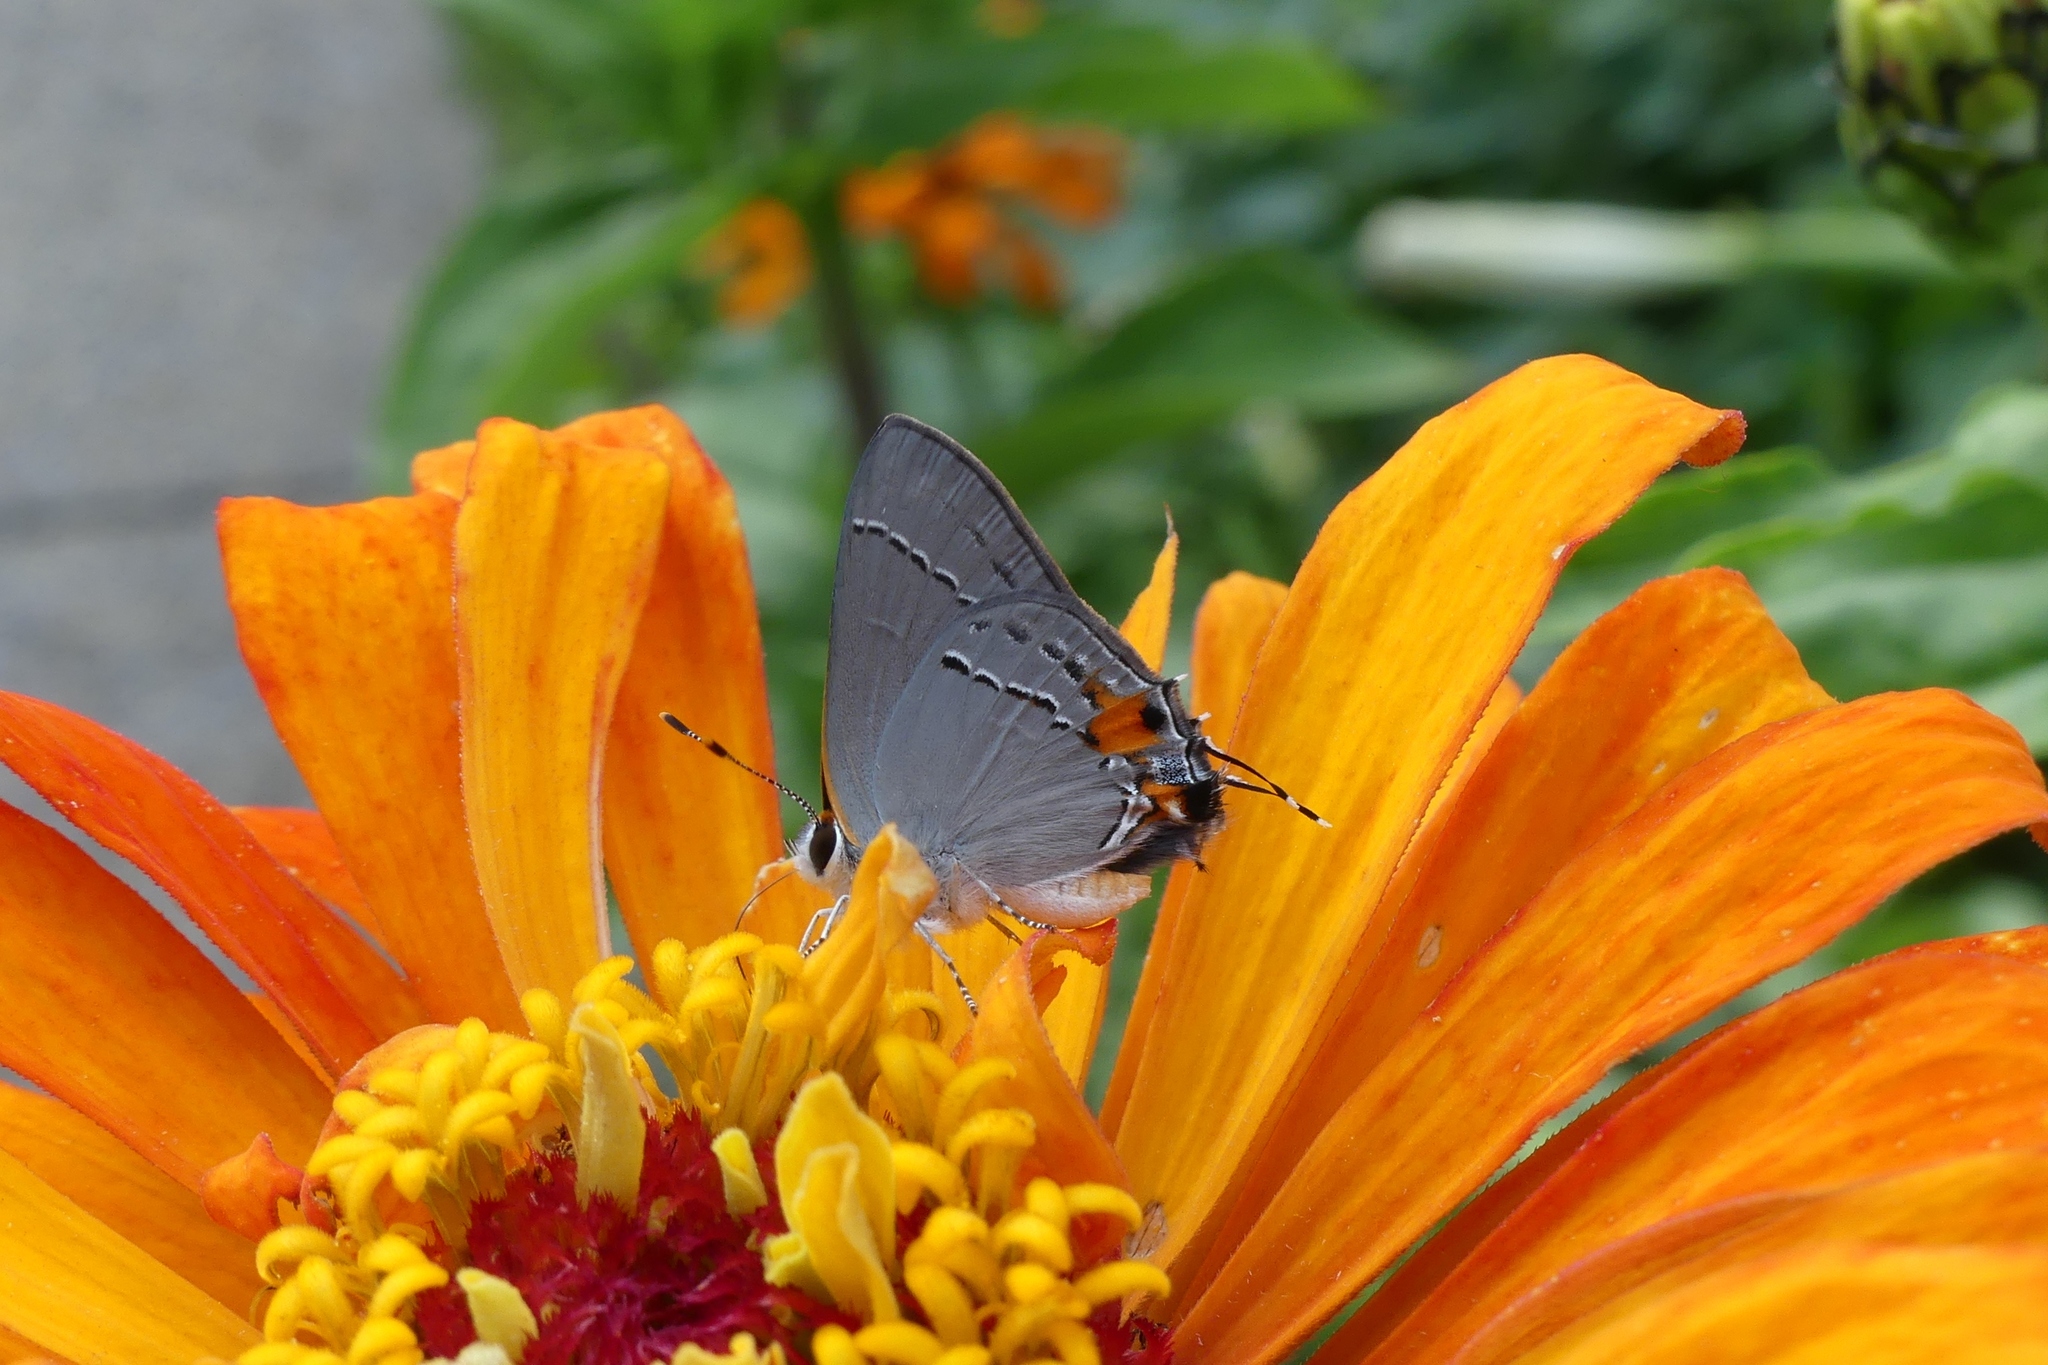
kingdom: Animalia
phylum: Arthropoda
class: Insecta
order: Lepidoptera
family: Lycaenidae
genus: Strymon
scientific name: Strymon melinus
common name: Gray hairstreak
